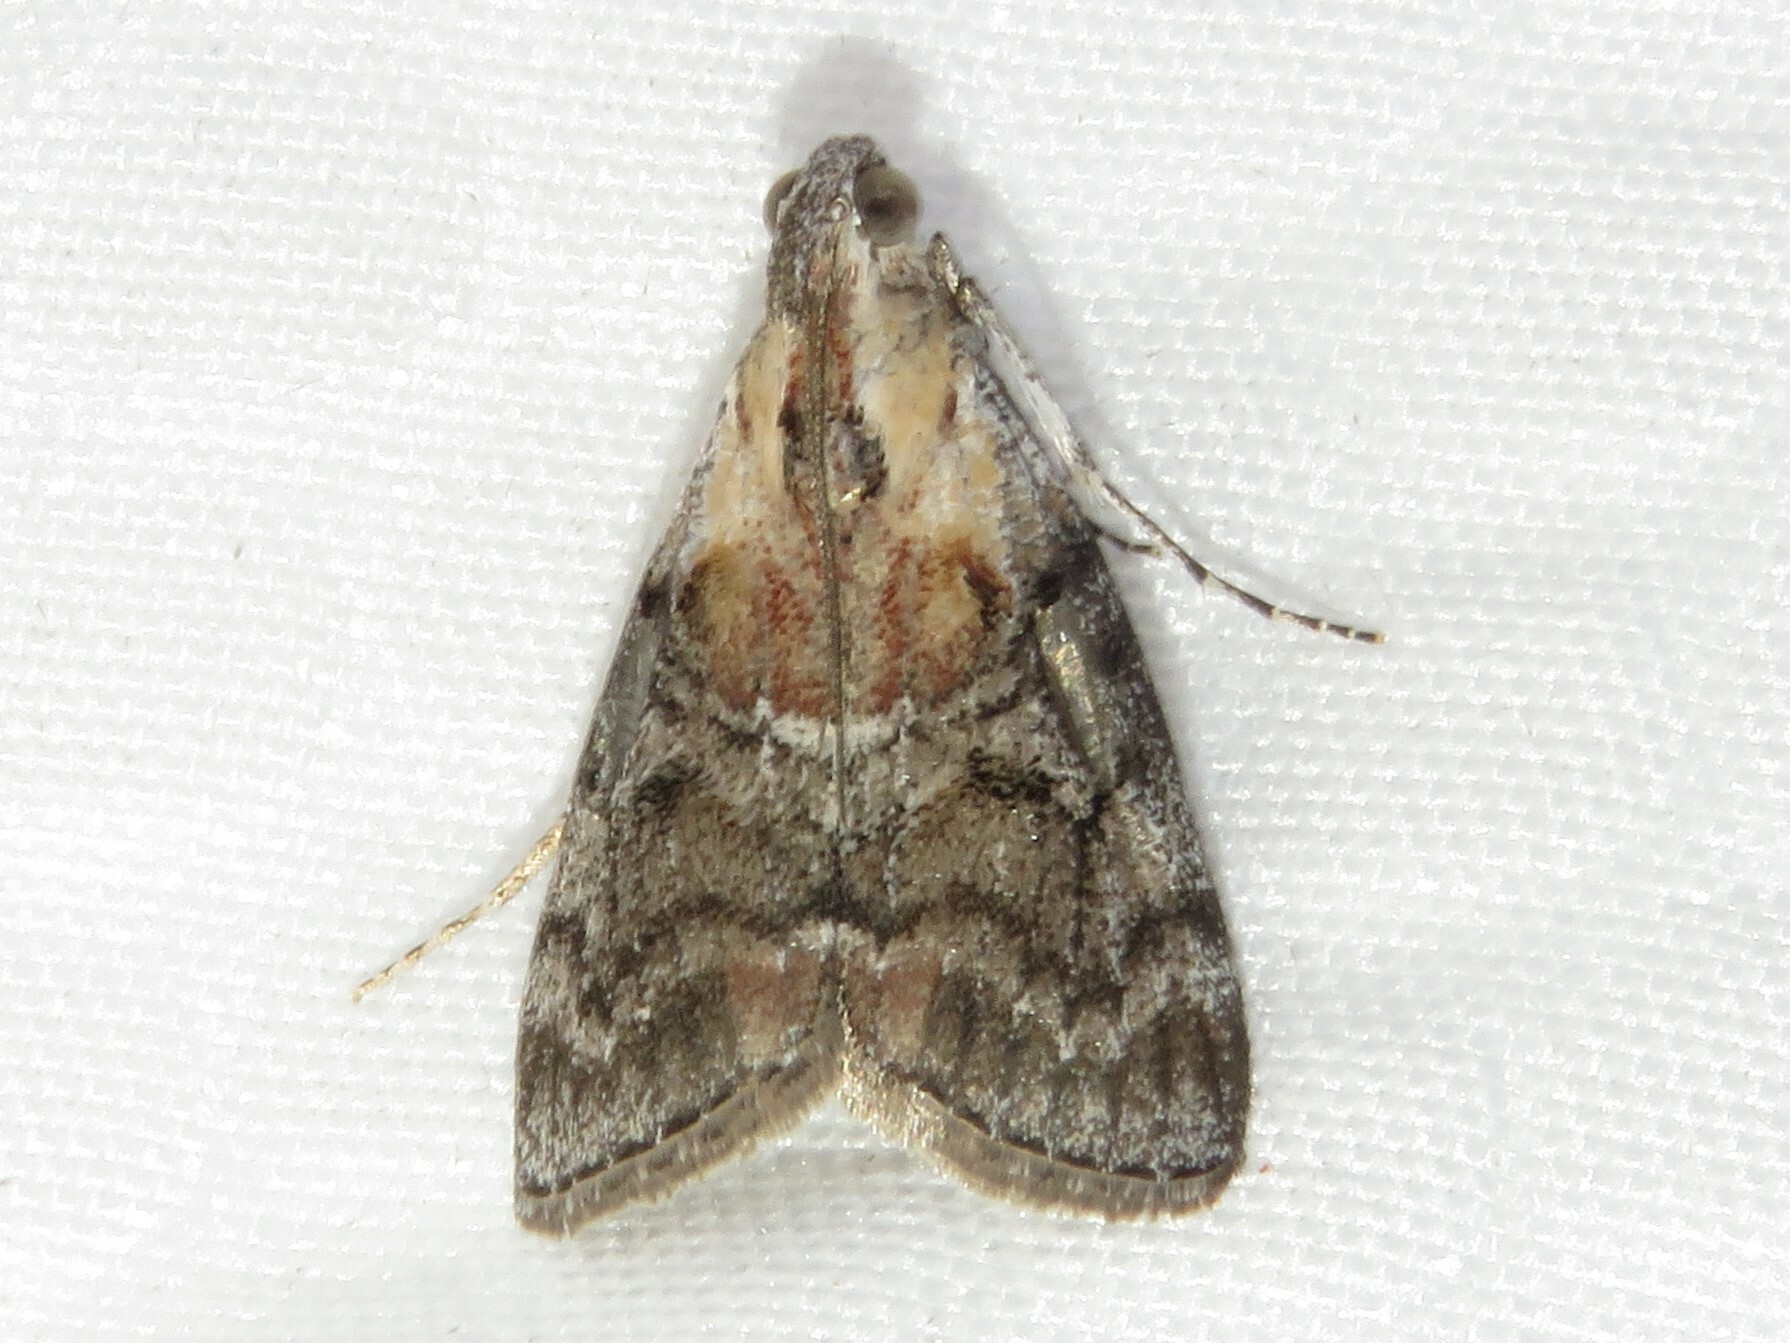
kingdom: Animalia
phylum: Arthropoda
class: Insecta
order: Lepidoptera
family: Pyralidae
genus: Pococera
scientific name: Pococera expandens
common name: Striped oak webworm moth
